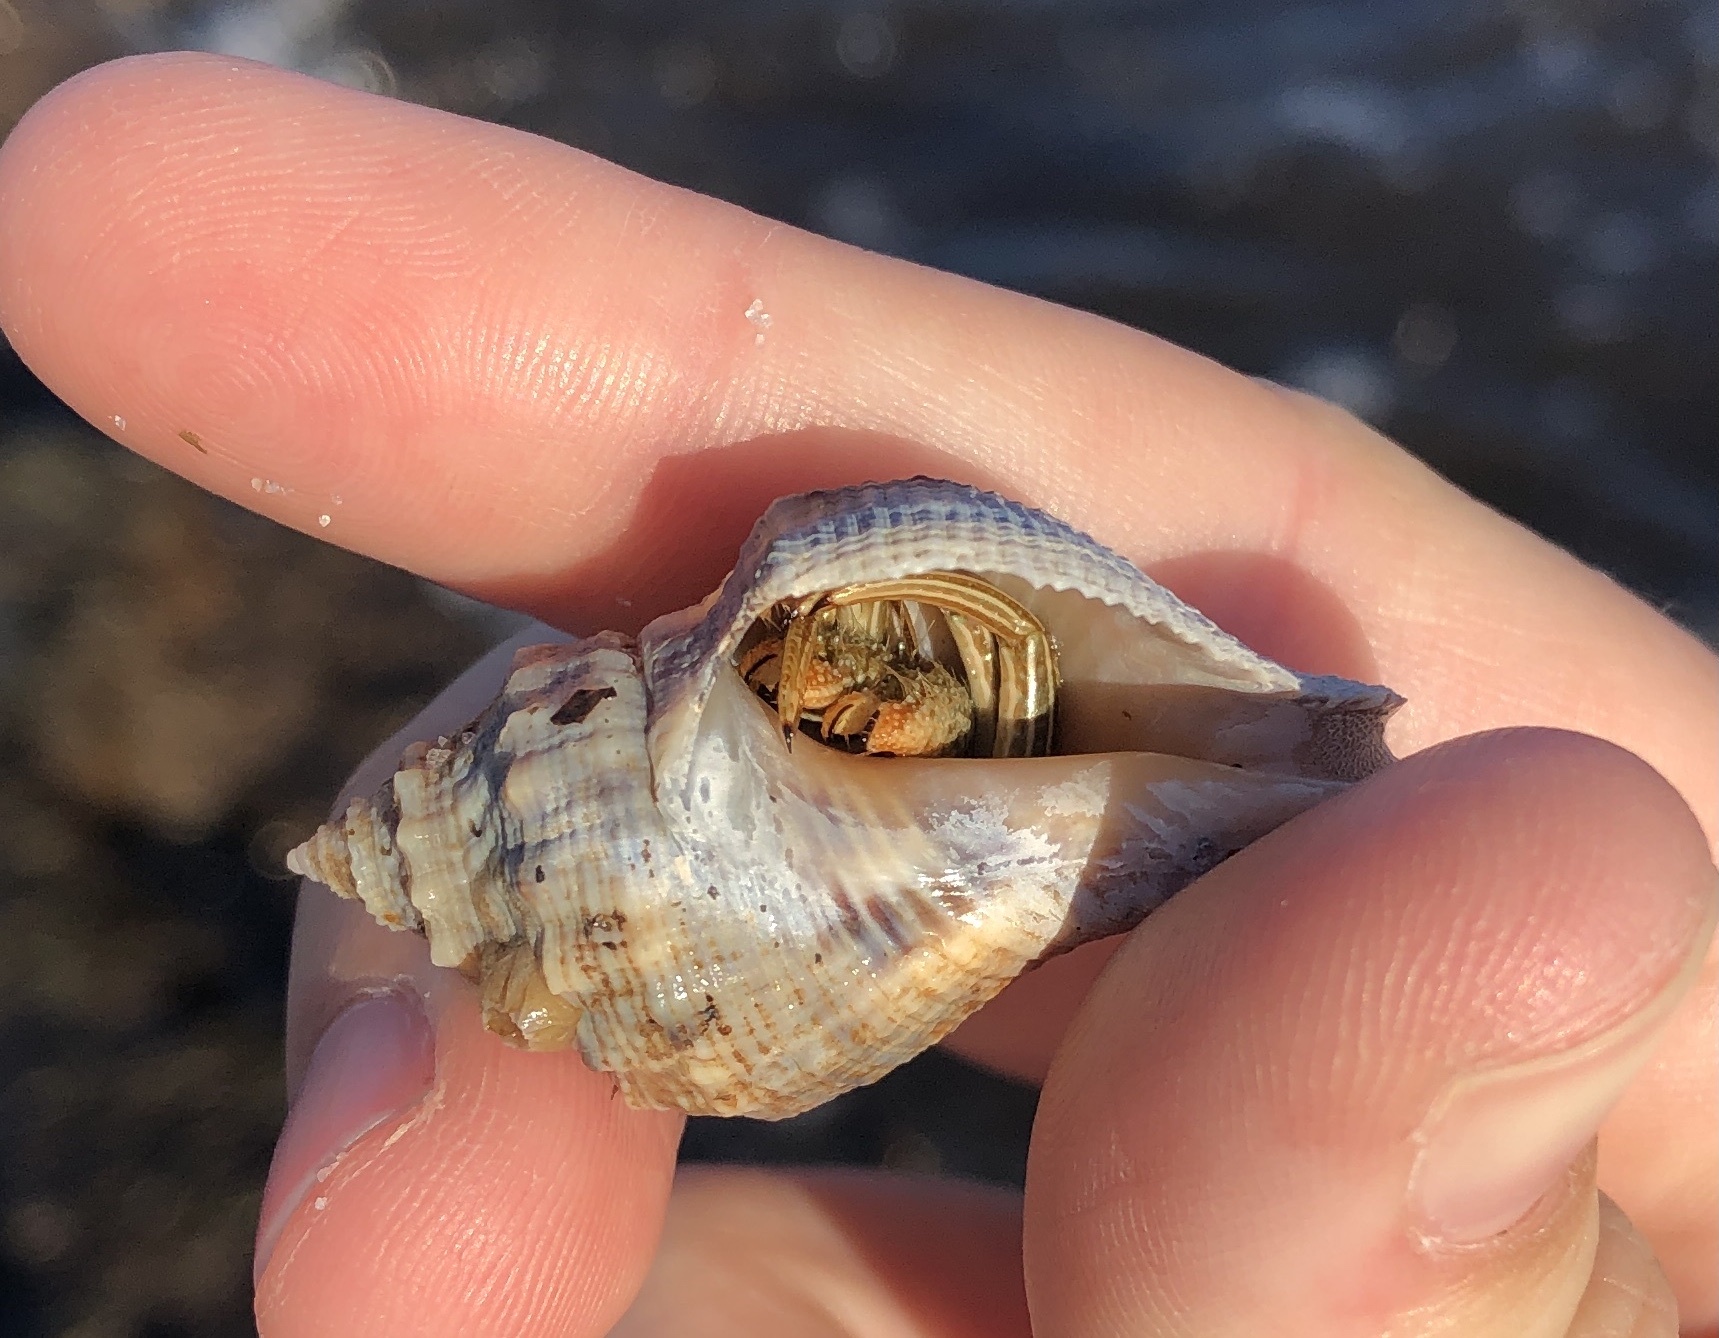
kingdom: Animalia
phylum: Arthropoda
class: Malacostraca
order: Decapoda
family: Diogenidae
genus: Clibanarius
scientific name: Clibanarius vittatus
